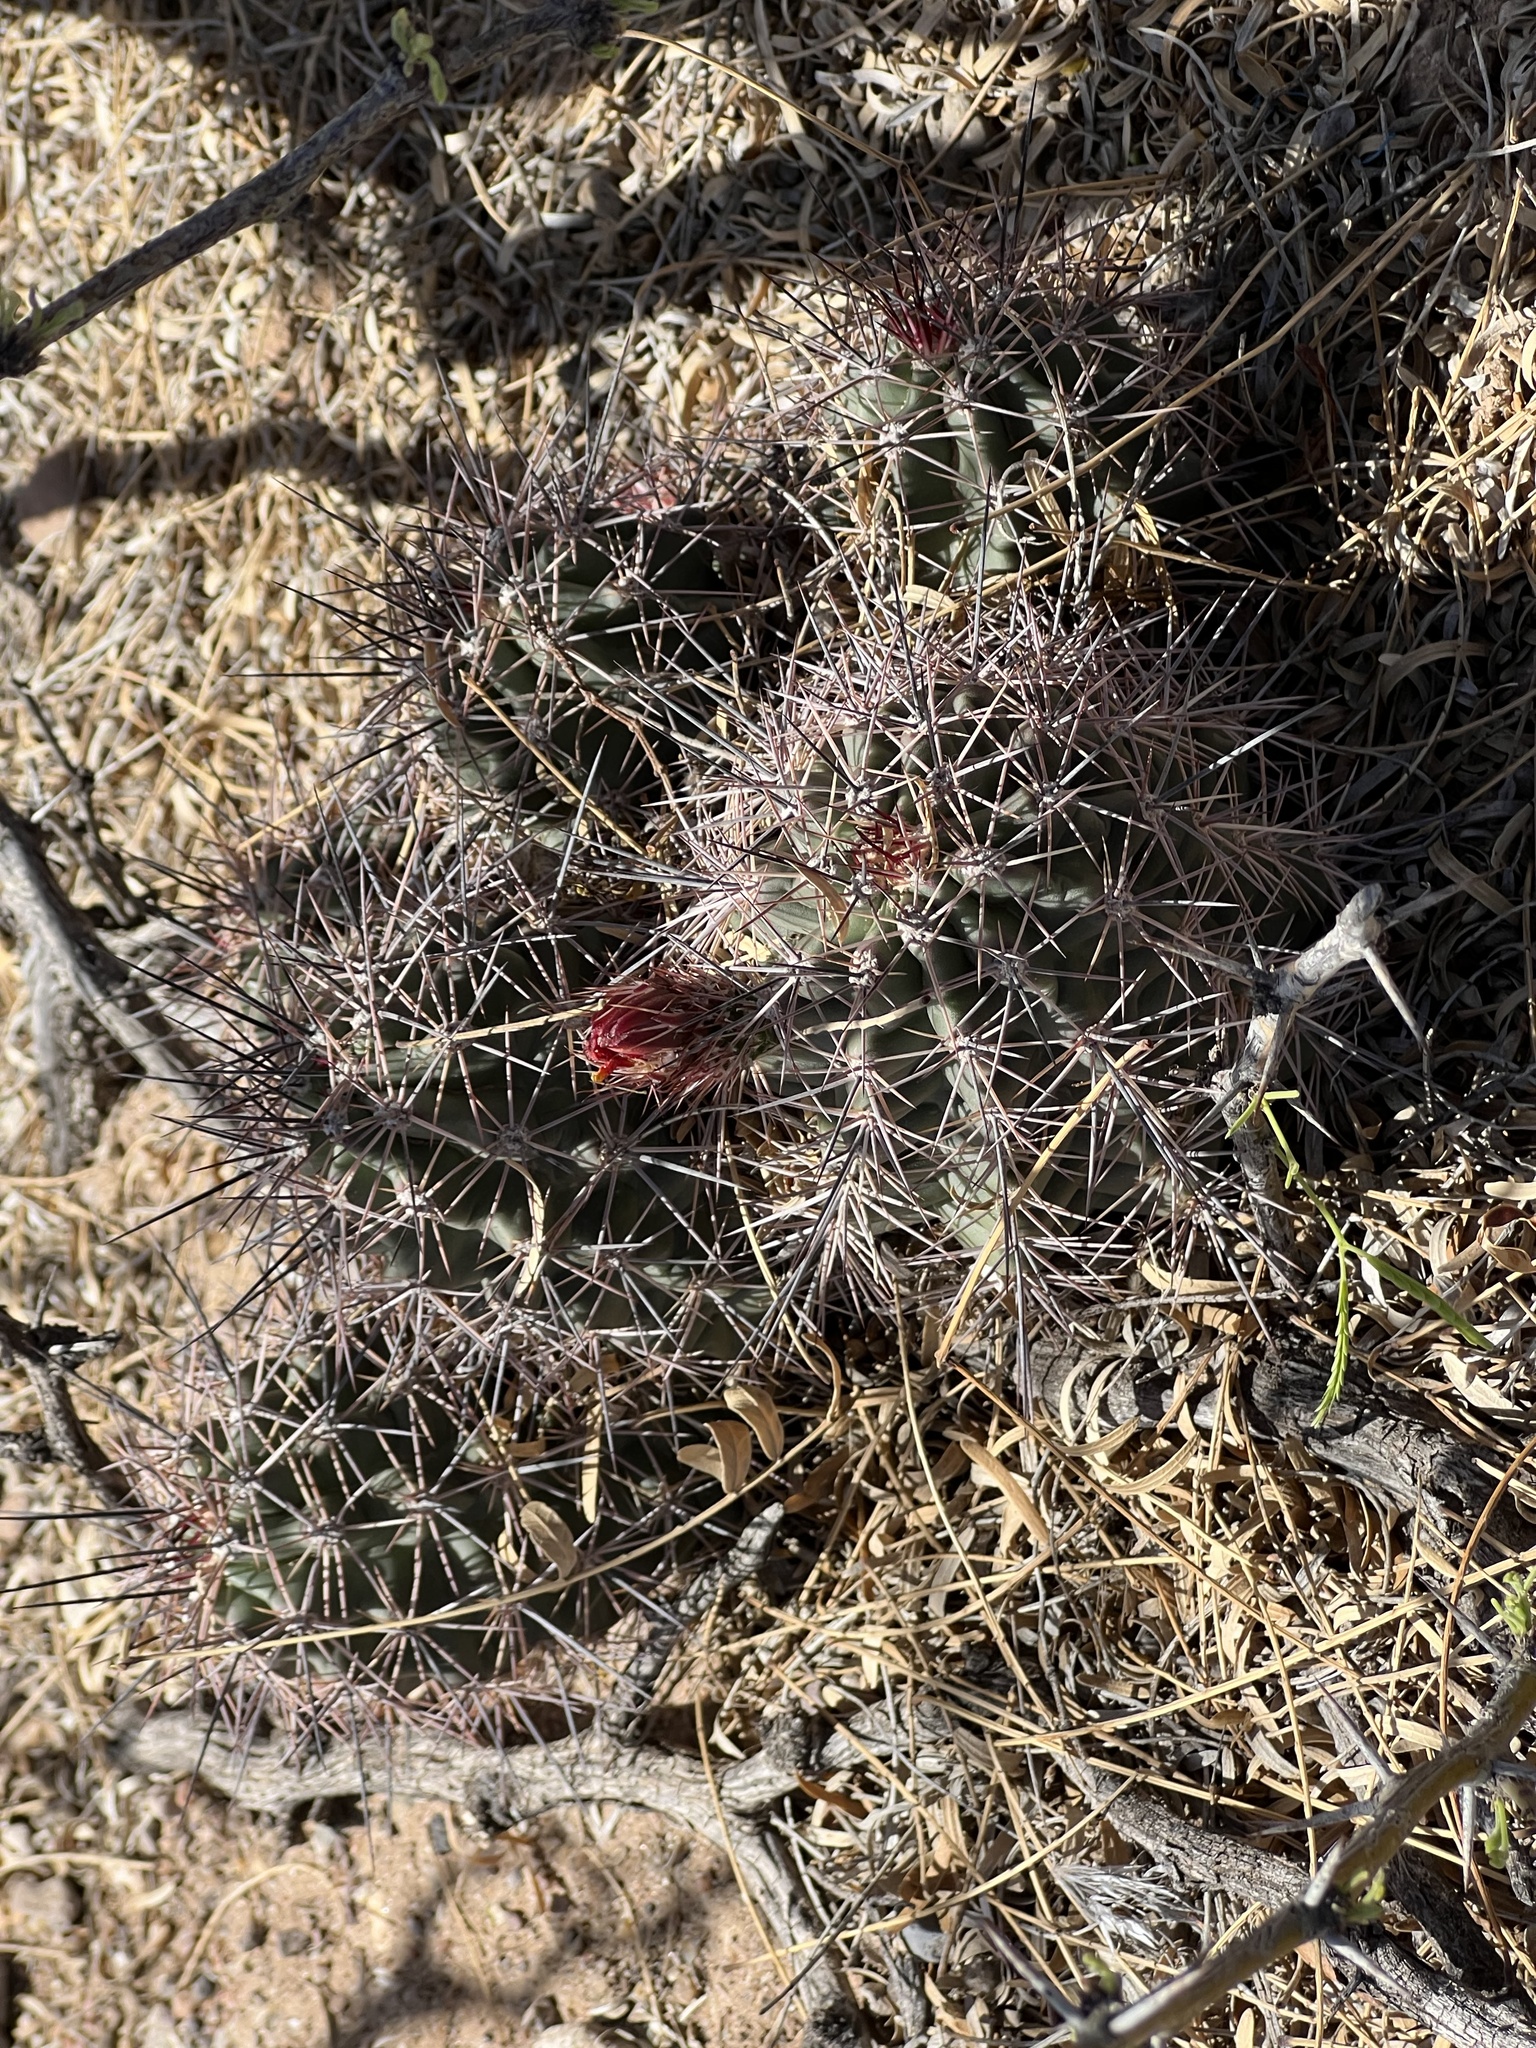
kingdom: Plantae
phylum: Tracheophyta
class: Magnoliopsida
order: Caryophyllales
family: Cactaceae
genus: Echinocereus
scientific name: Echinocereus coccineus
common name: Scarlet hedgehog cactus
